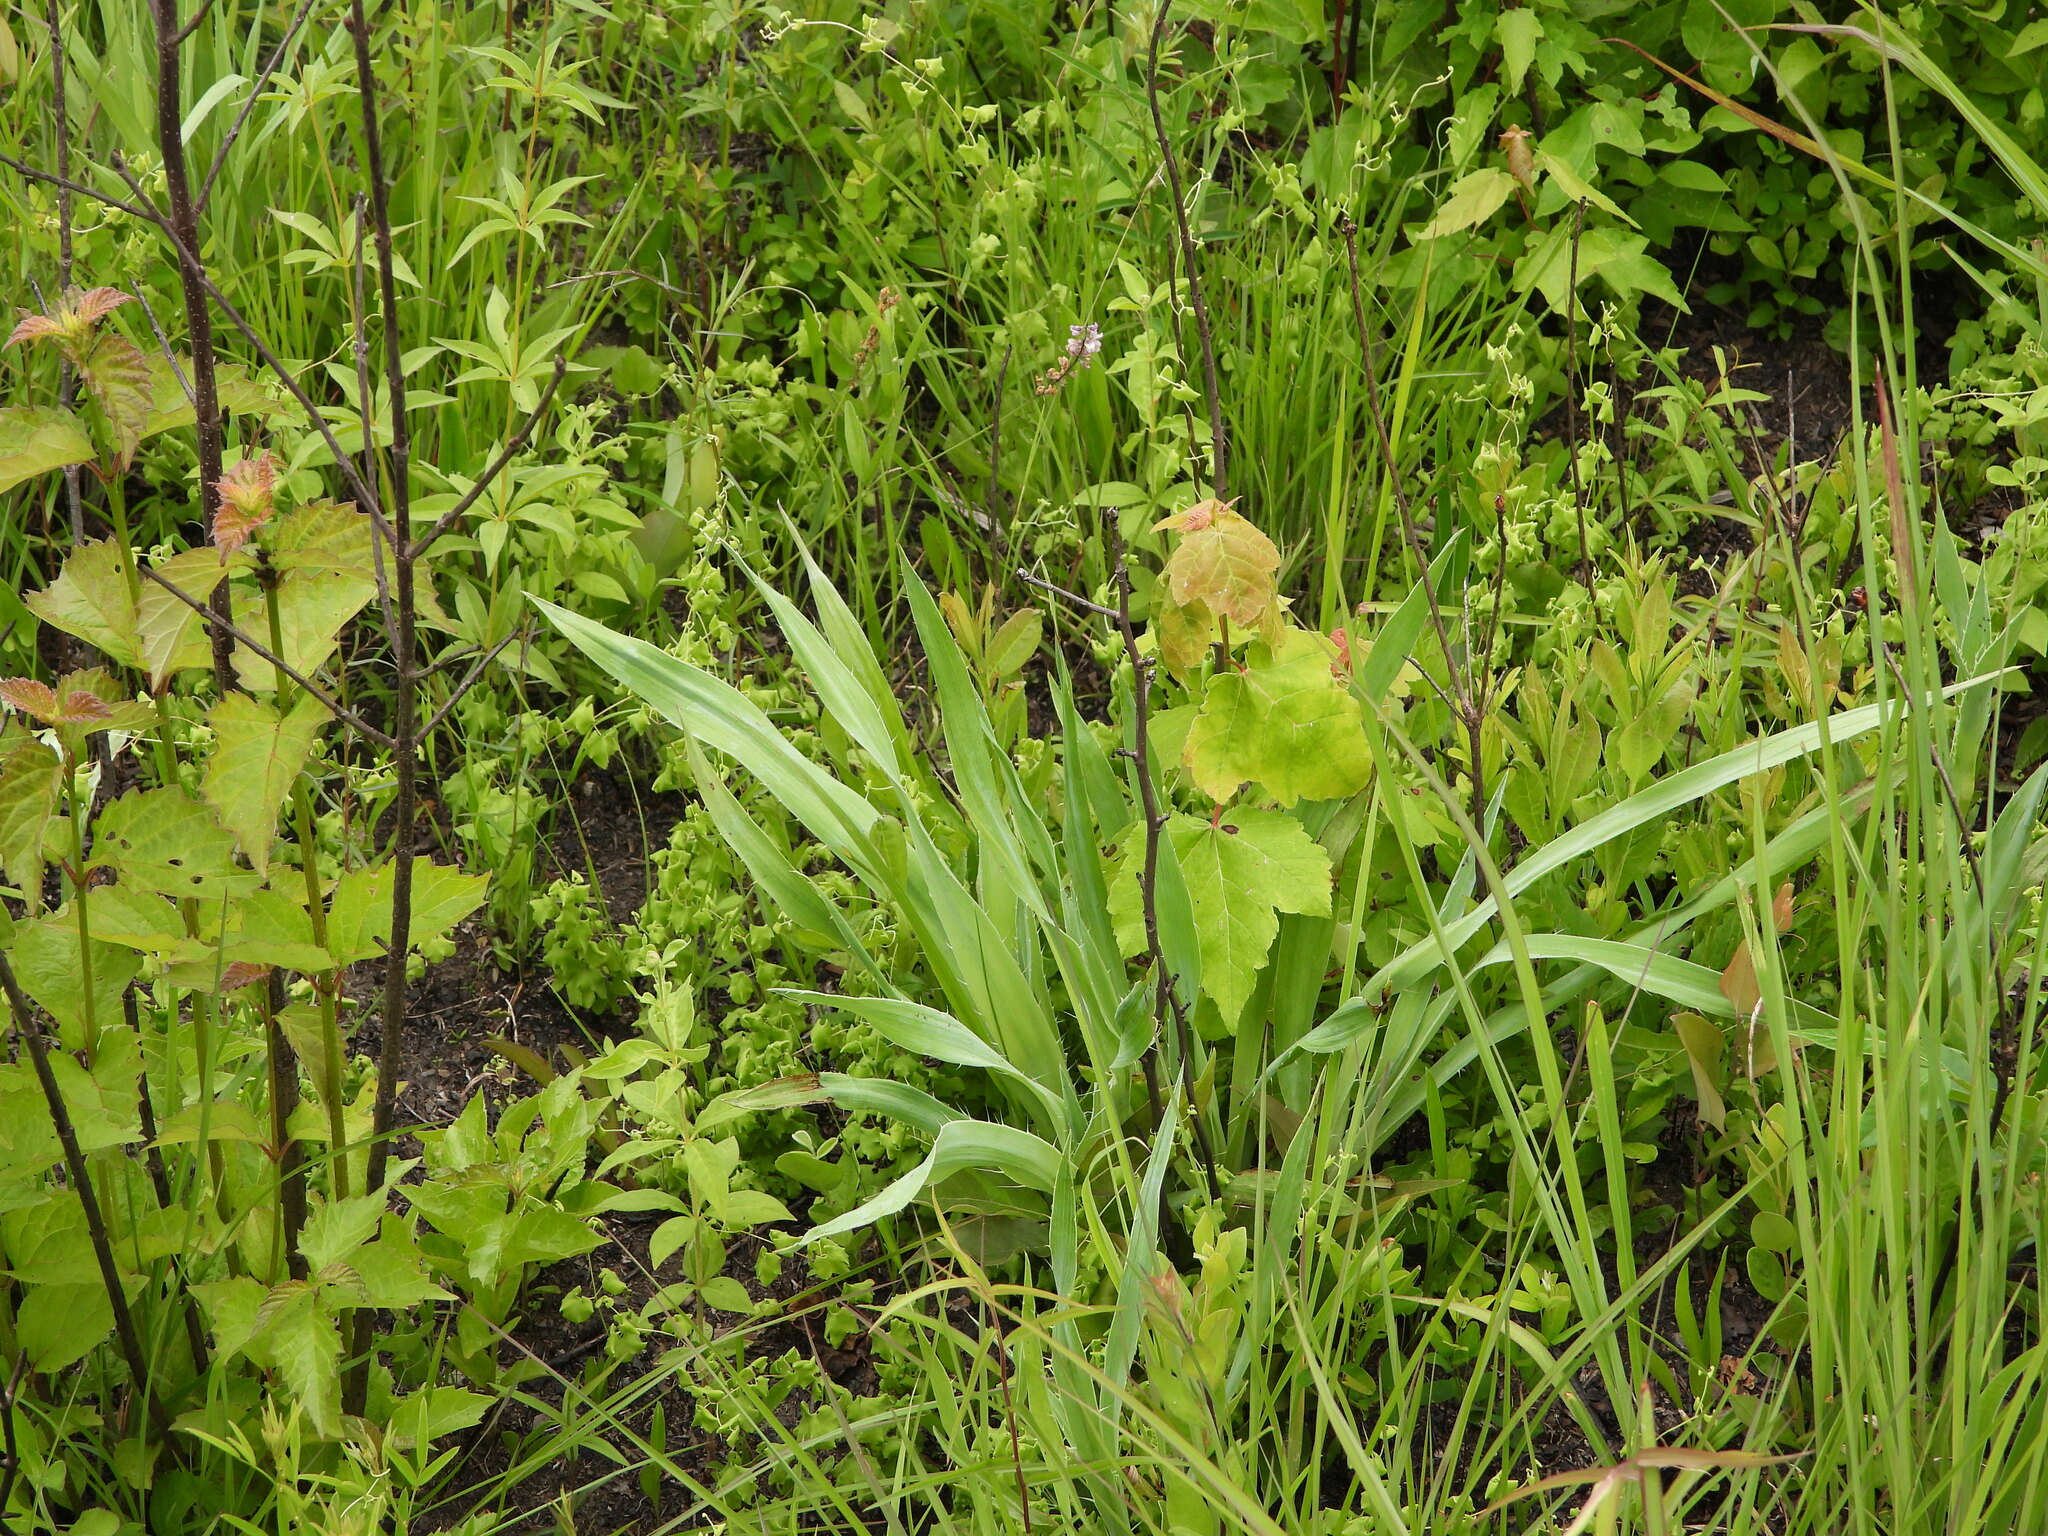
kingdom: Plantae
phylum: Tracheophyta
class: Magnoliopsida
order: Apiales
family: Apiaceae
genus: Eryngium
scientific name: Eryngium yuccifolium
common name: Button eryngo
